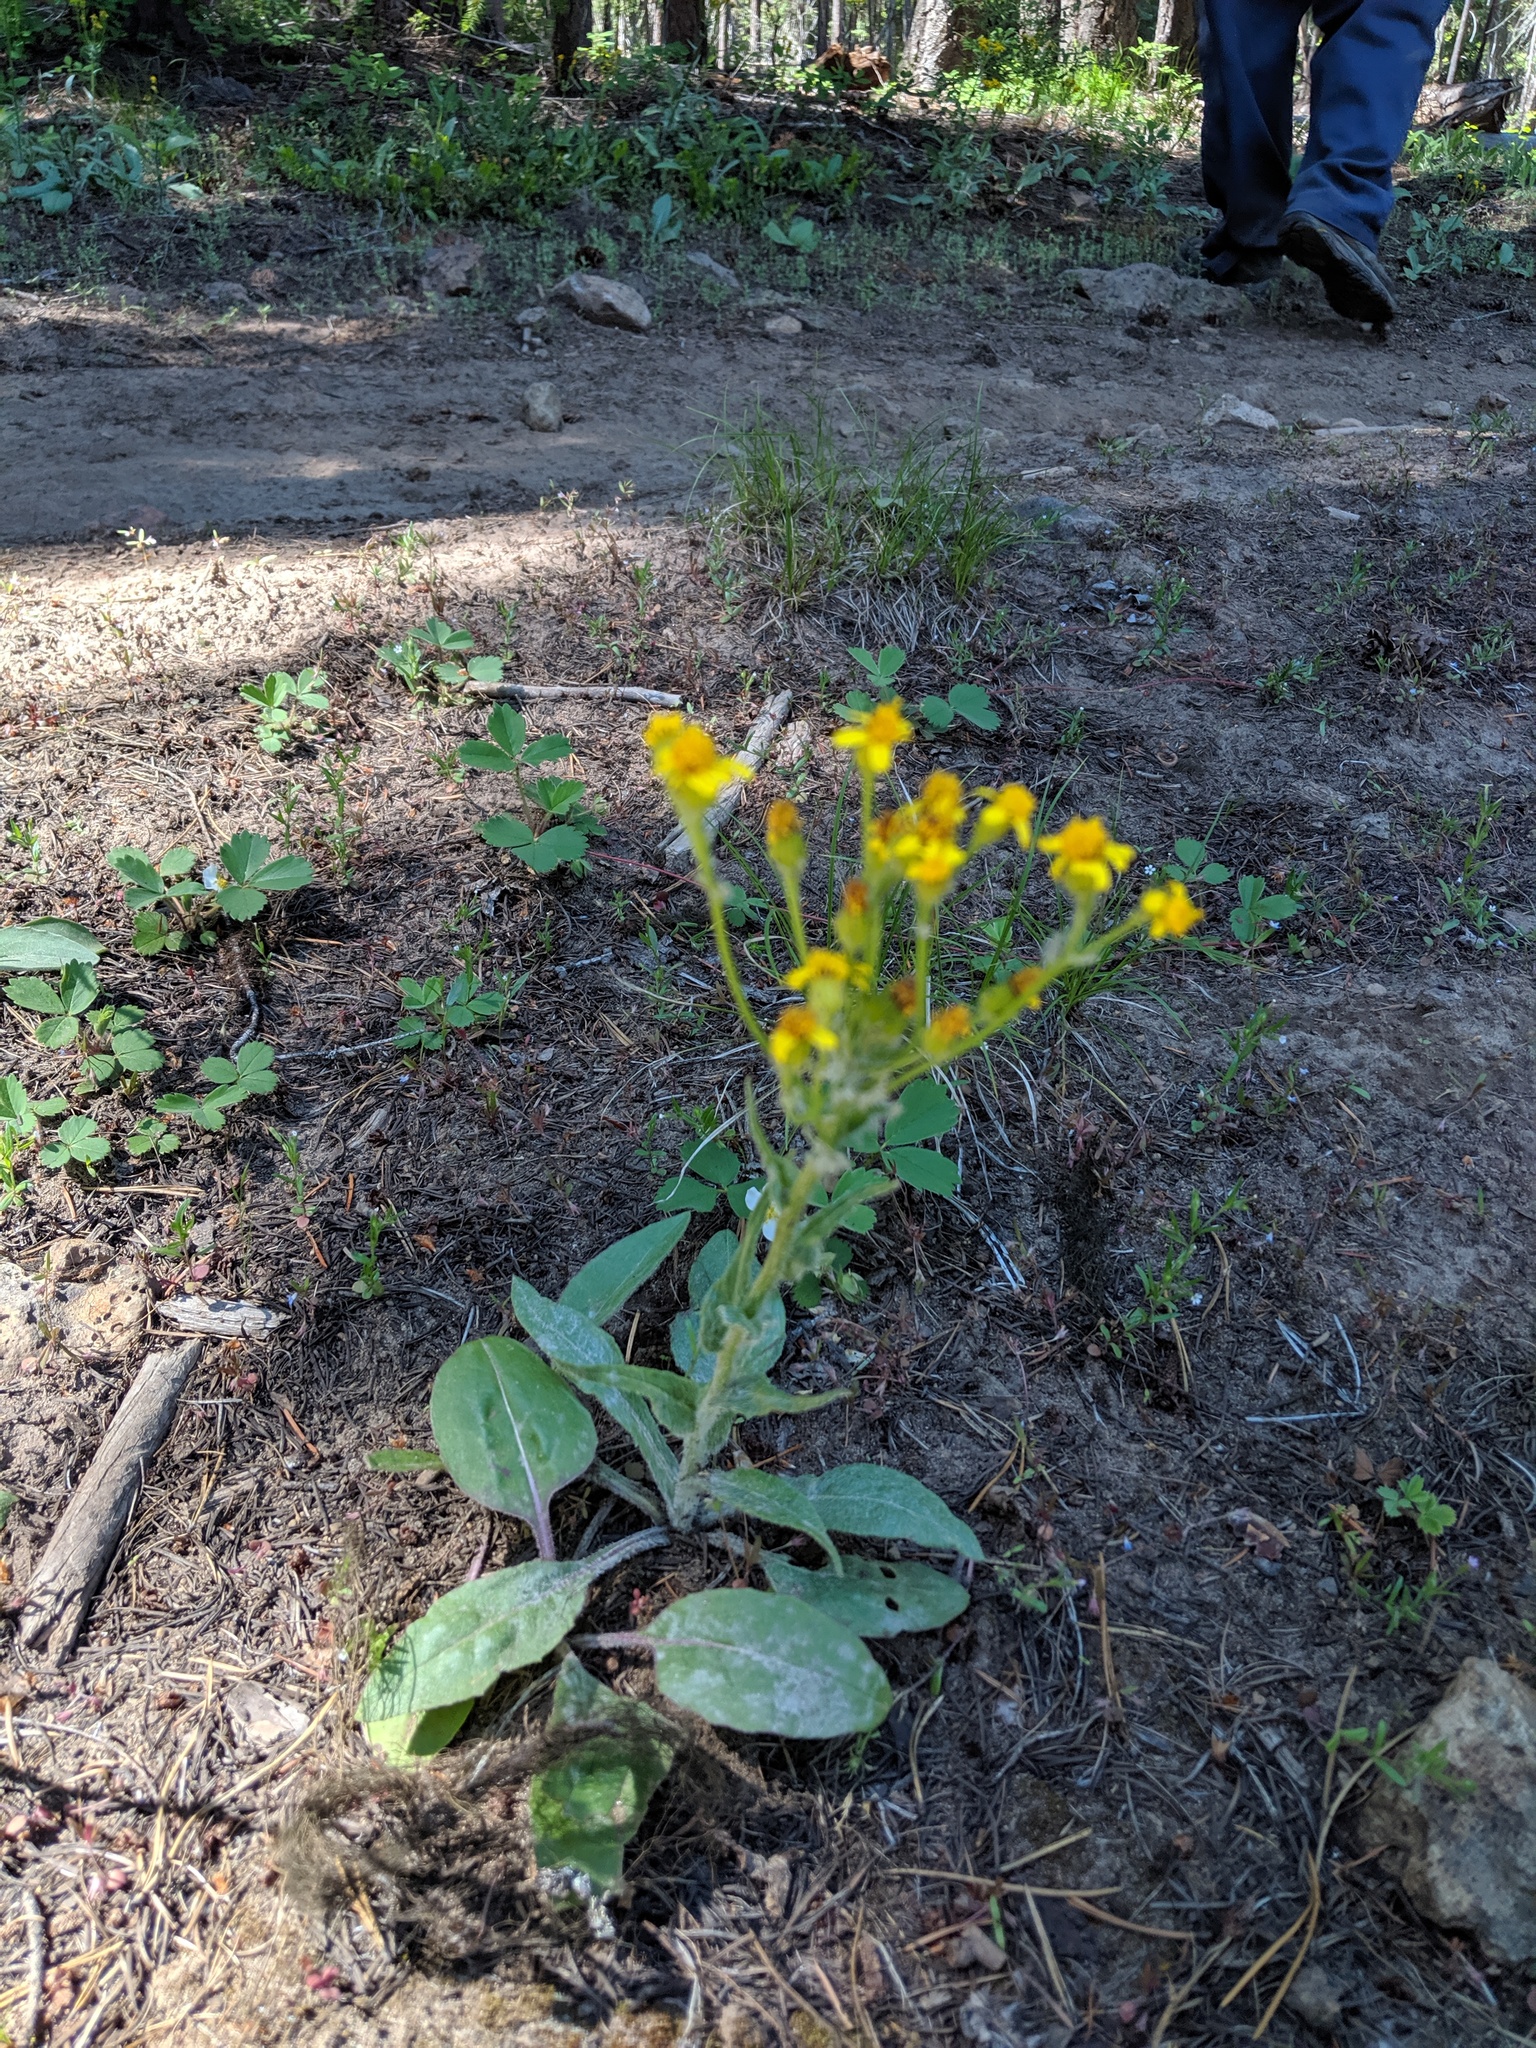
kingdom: Plantae
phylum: Tracheophyta
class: Magnoliopsida
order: Asterales
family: Asteraceae
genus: Senecio
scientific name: Senecio integerrimus
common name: Gaugeplant
